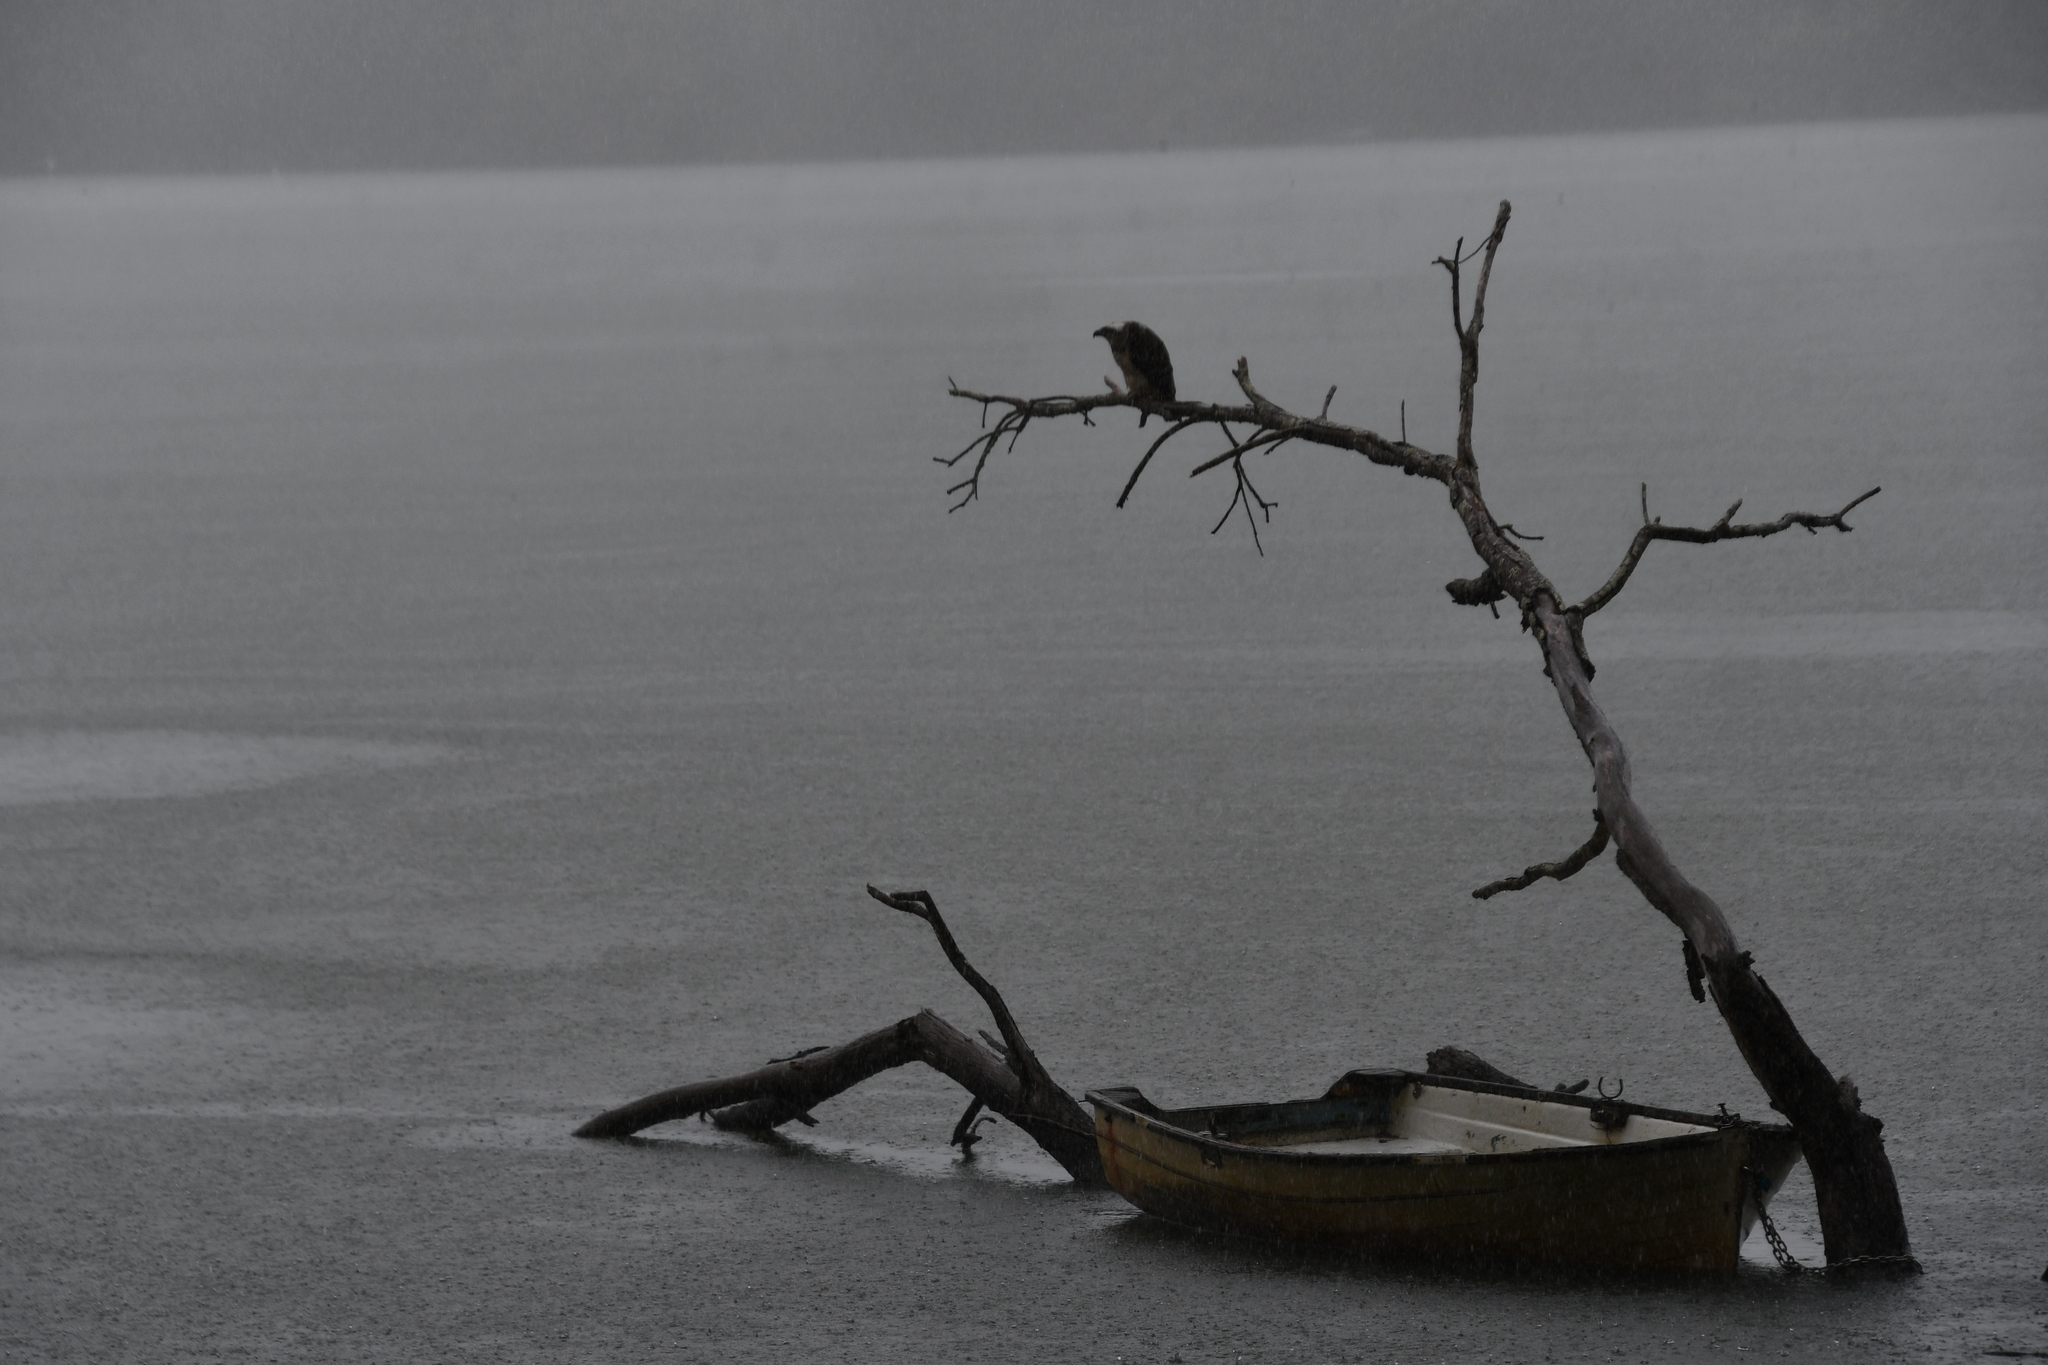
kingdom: Animalia
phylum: Chordata
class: Aves
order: Accipitriformes
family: Pandionidae
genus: Pandion
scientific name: Pandion haliaetus
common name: Osprey
